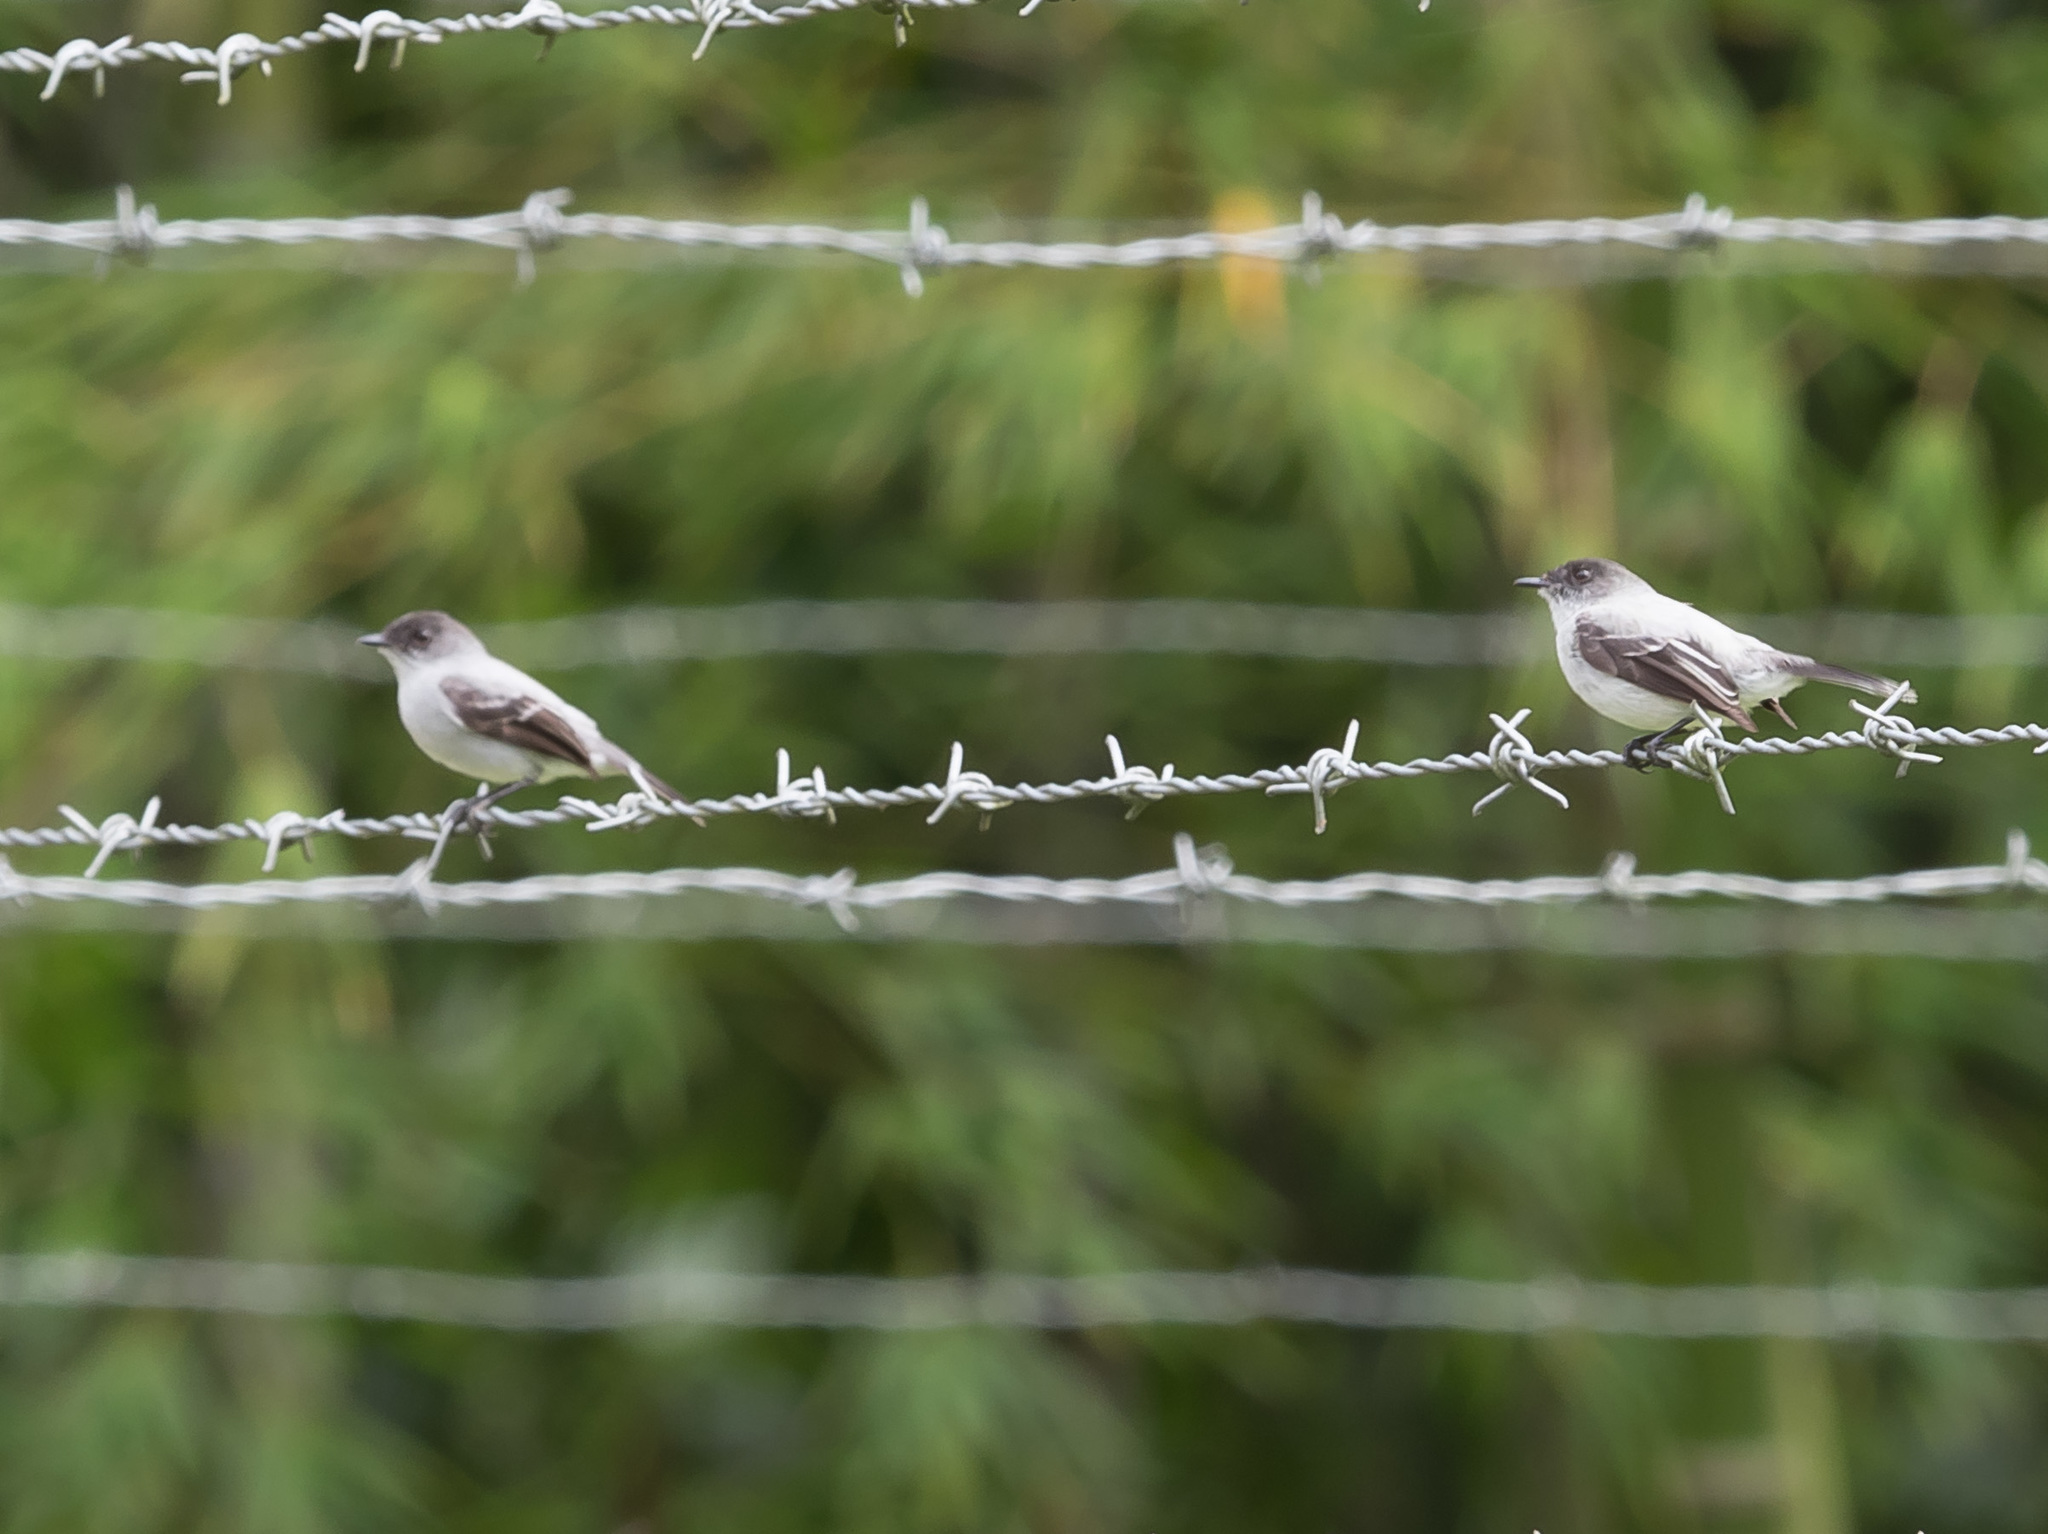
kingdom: Animalia
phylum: Chordata
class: Aves
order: Passeriformes
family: Tyrannidae
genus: Serpophaga
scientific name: Serpophaga cinerea
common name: Torrent tyrannulet
